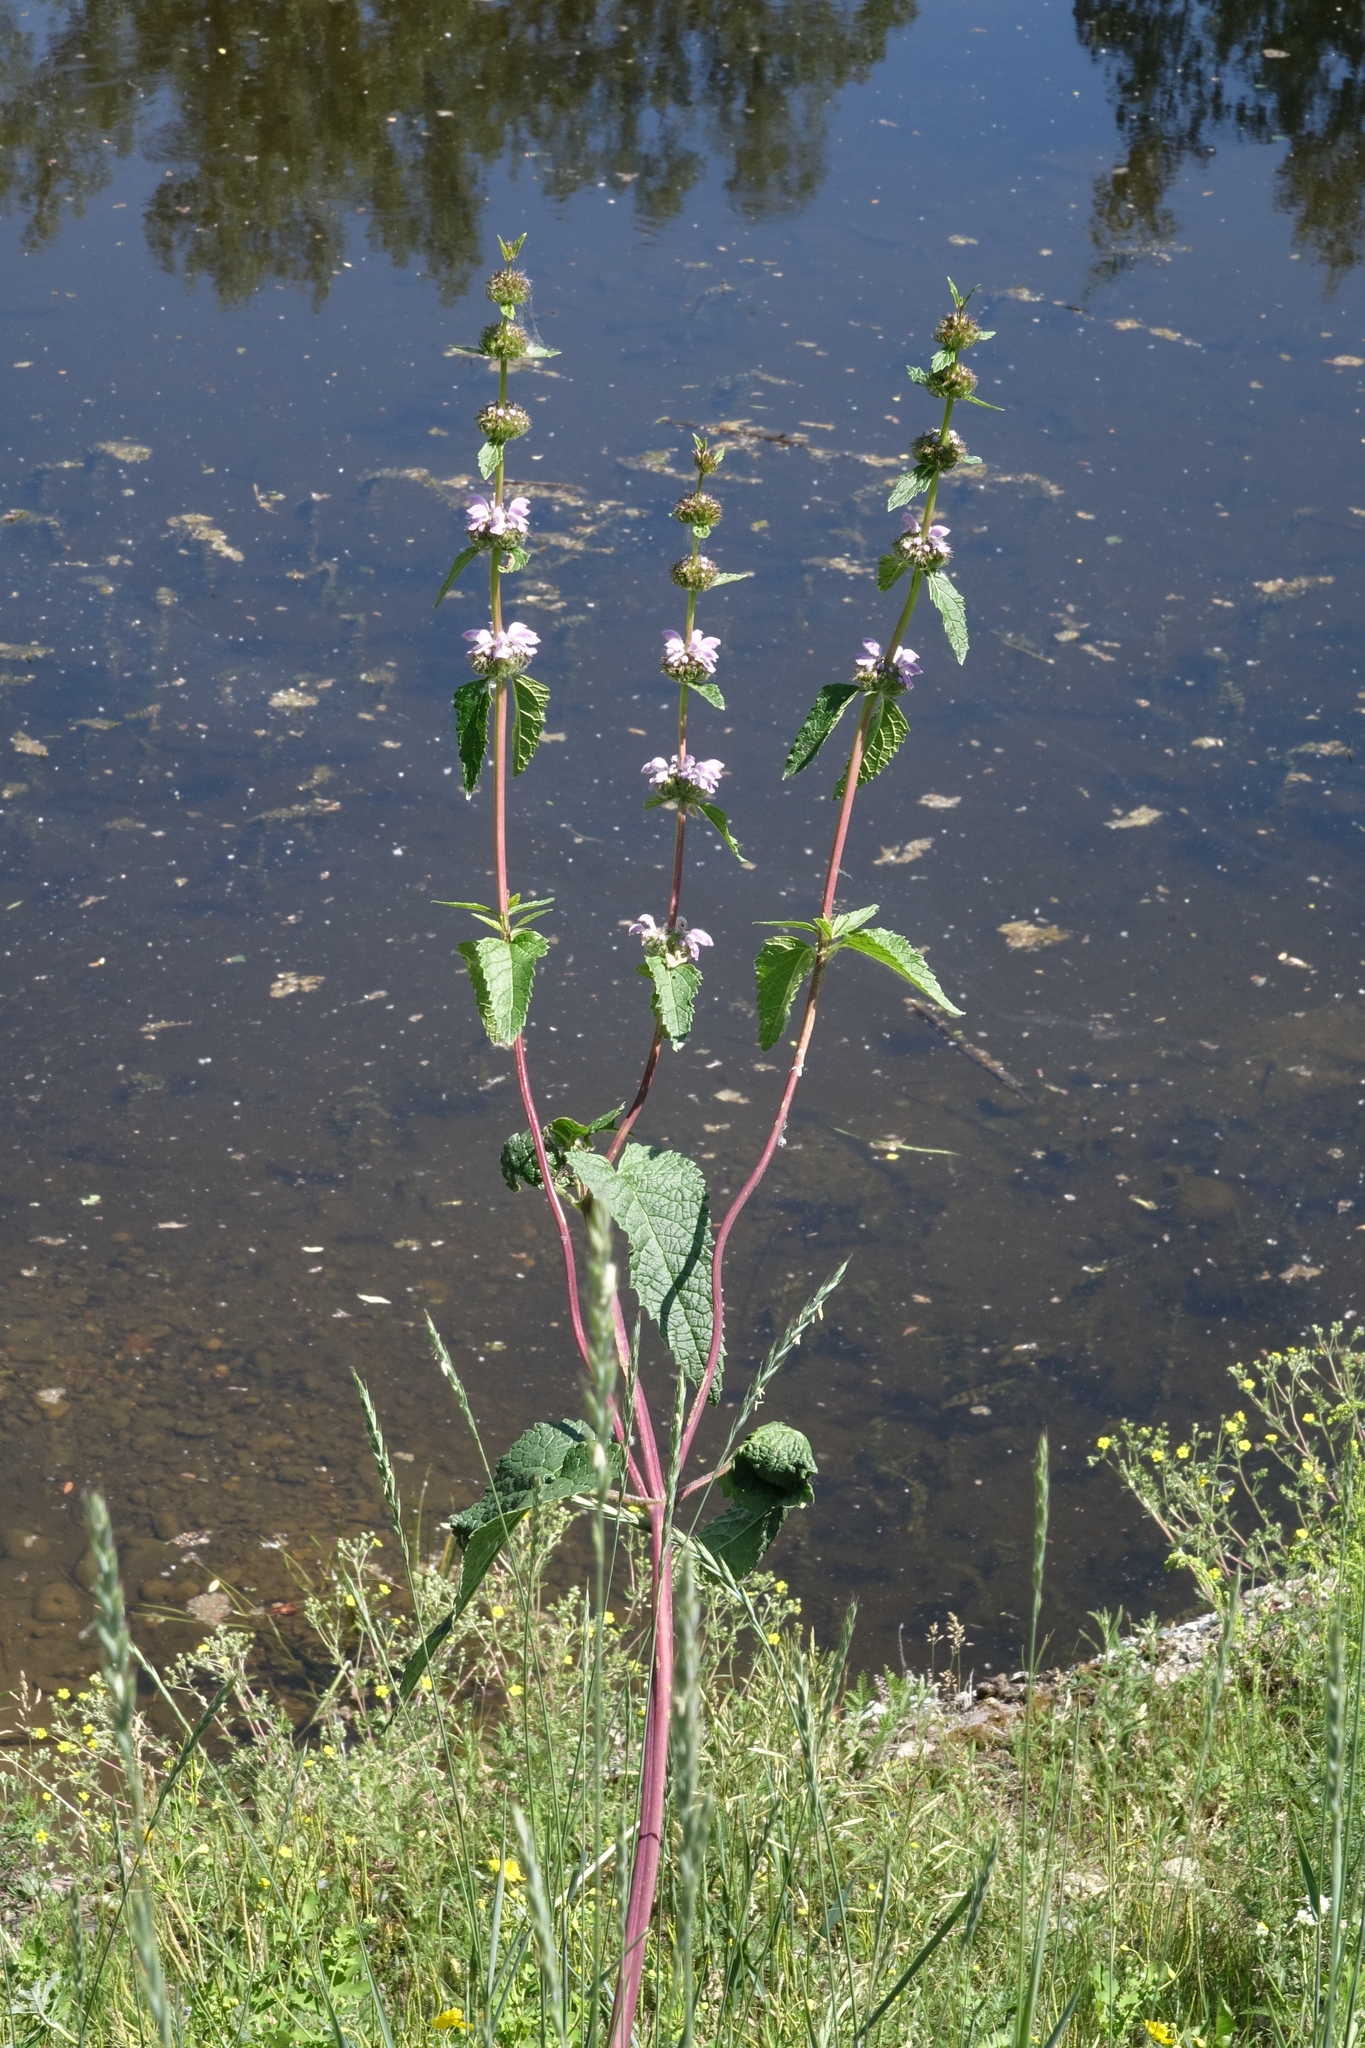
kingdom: Plantae
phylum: Tracheophyta
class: Magnoliopsida
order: Lamiales
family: Lamiaceae
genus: Phlomoides
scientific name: Phlomoides tuberosa
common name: Tuberous jerusalem sage
